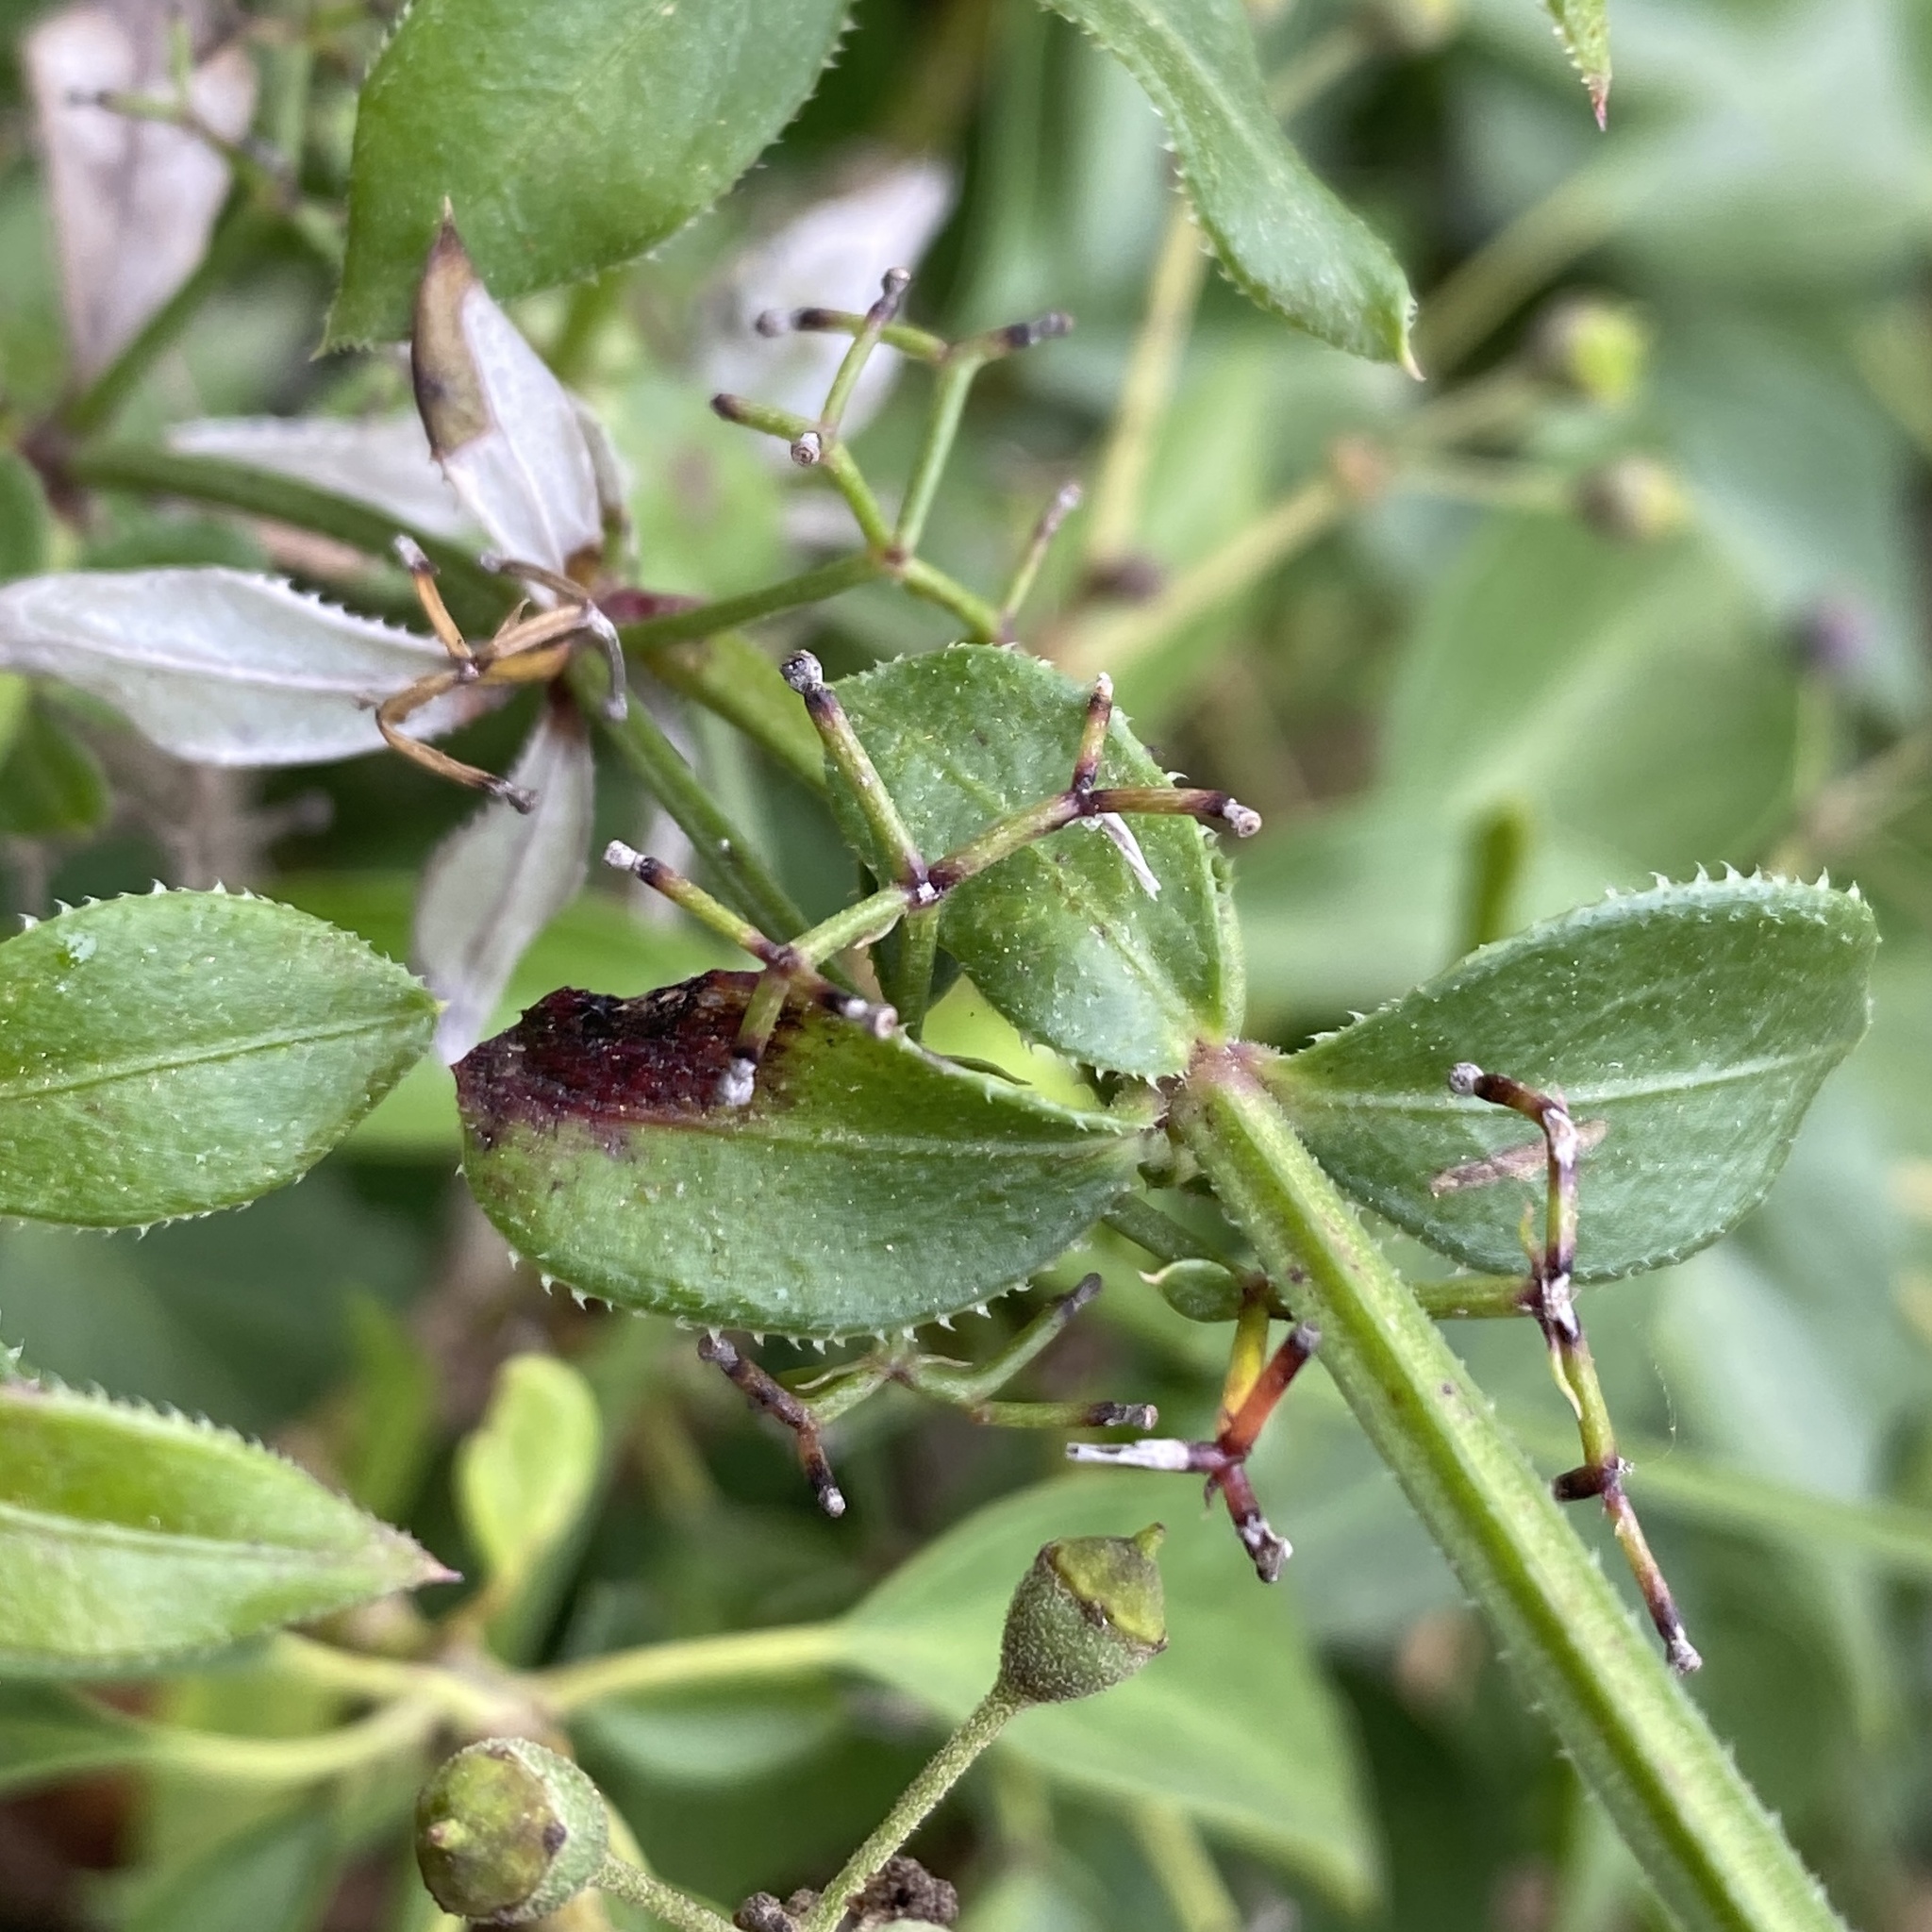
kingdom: Plantae
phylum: Tracheophyta
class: Magnoliopsida
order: Gentianales
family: Rubiaceae
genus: Rubia
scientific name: Rubia peregrina
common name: Wild madder
